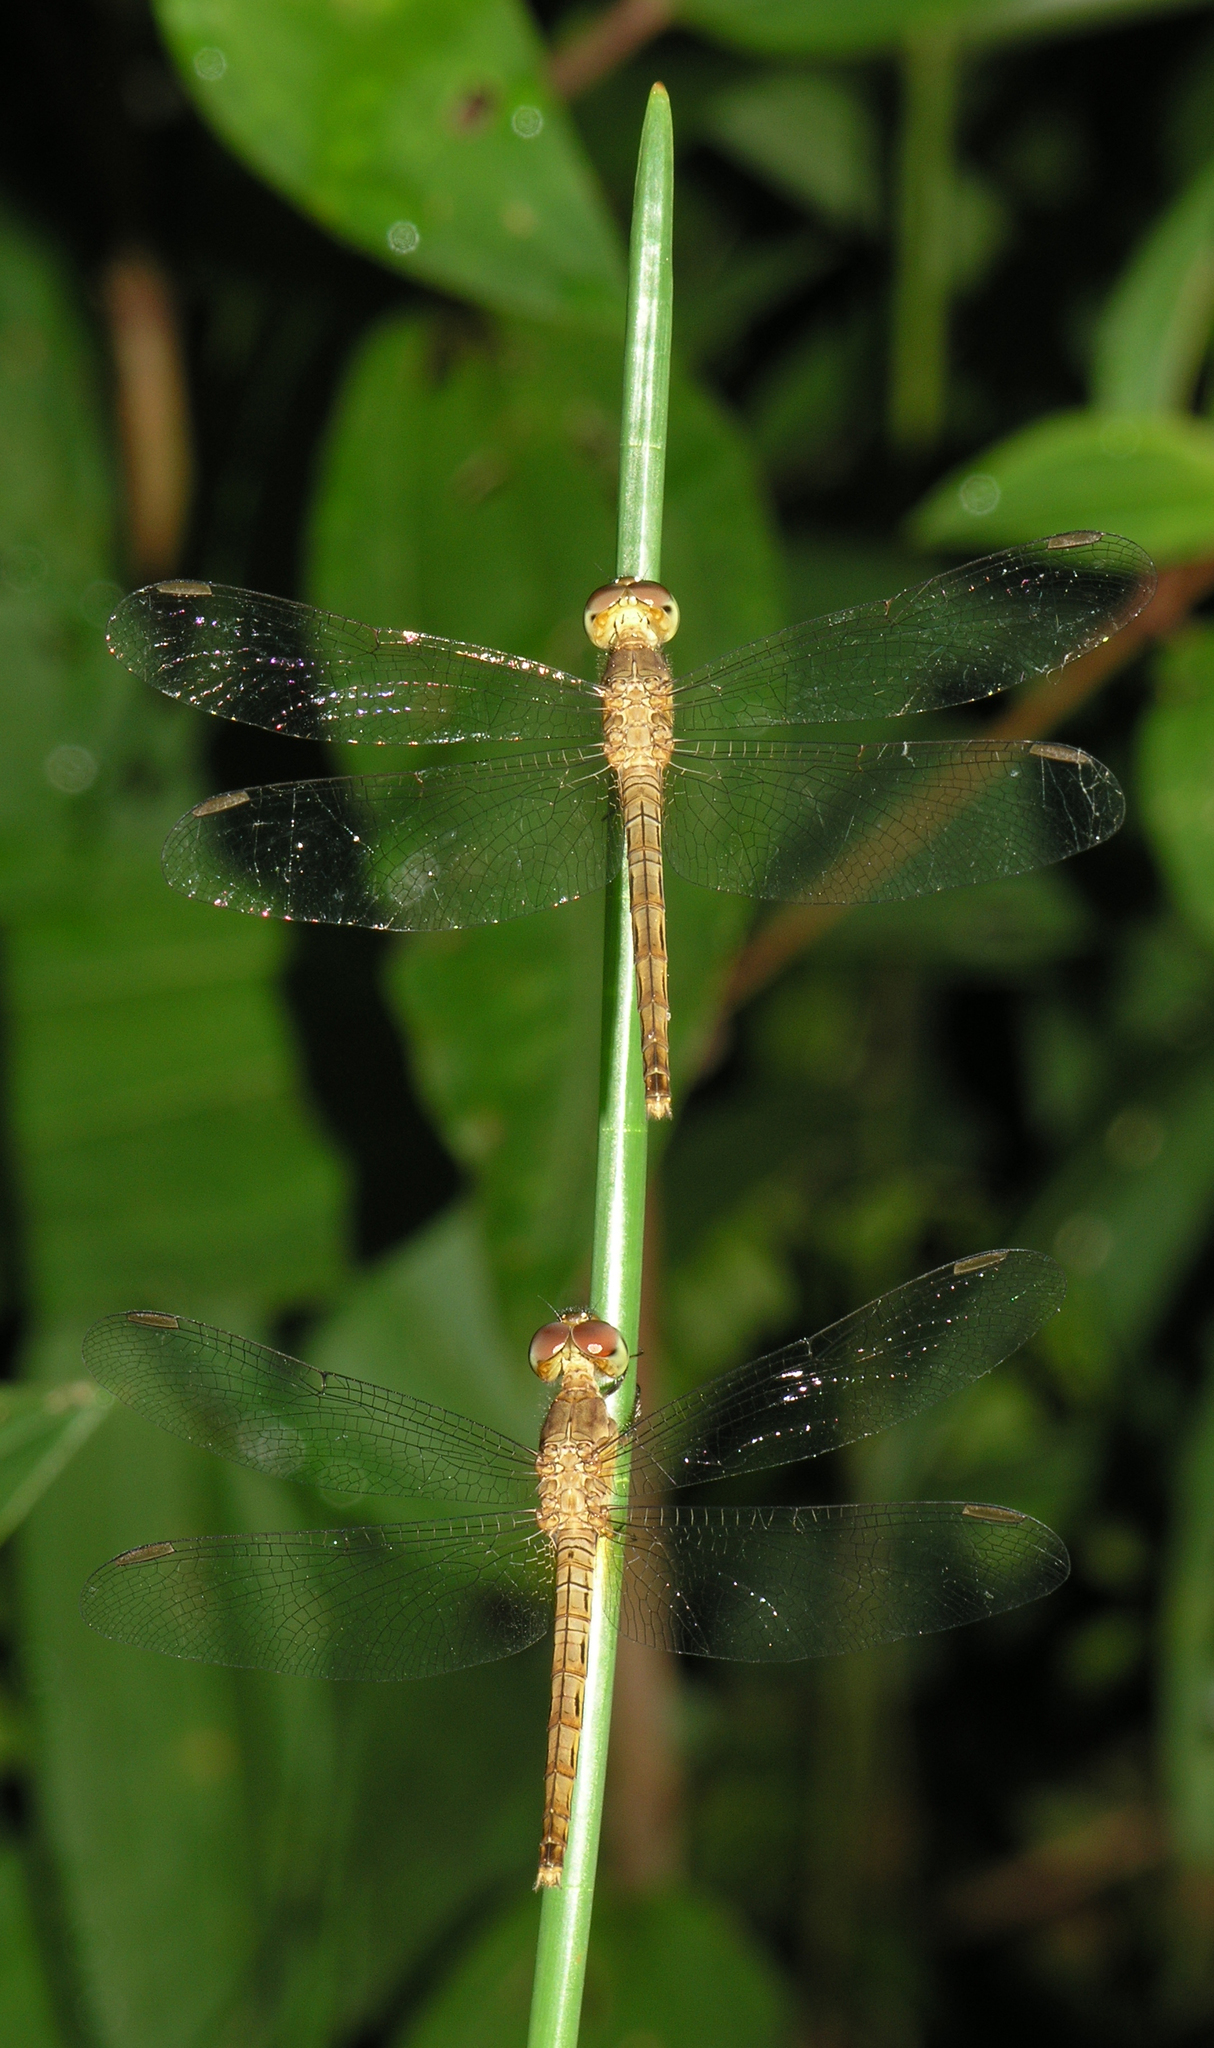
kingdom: Animalia
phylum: Arthropoda
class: Insecta
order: Odonata
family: Libellulidae
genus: Neurothemis
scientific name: Neurothemis fluctuans
